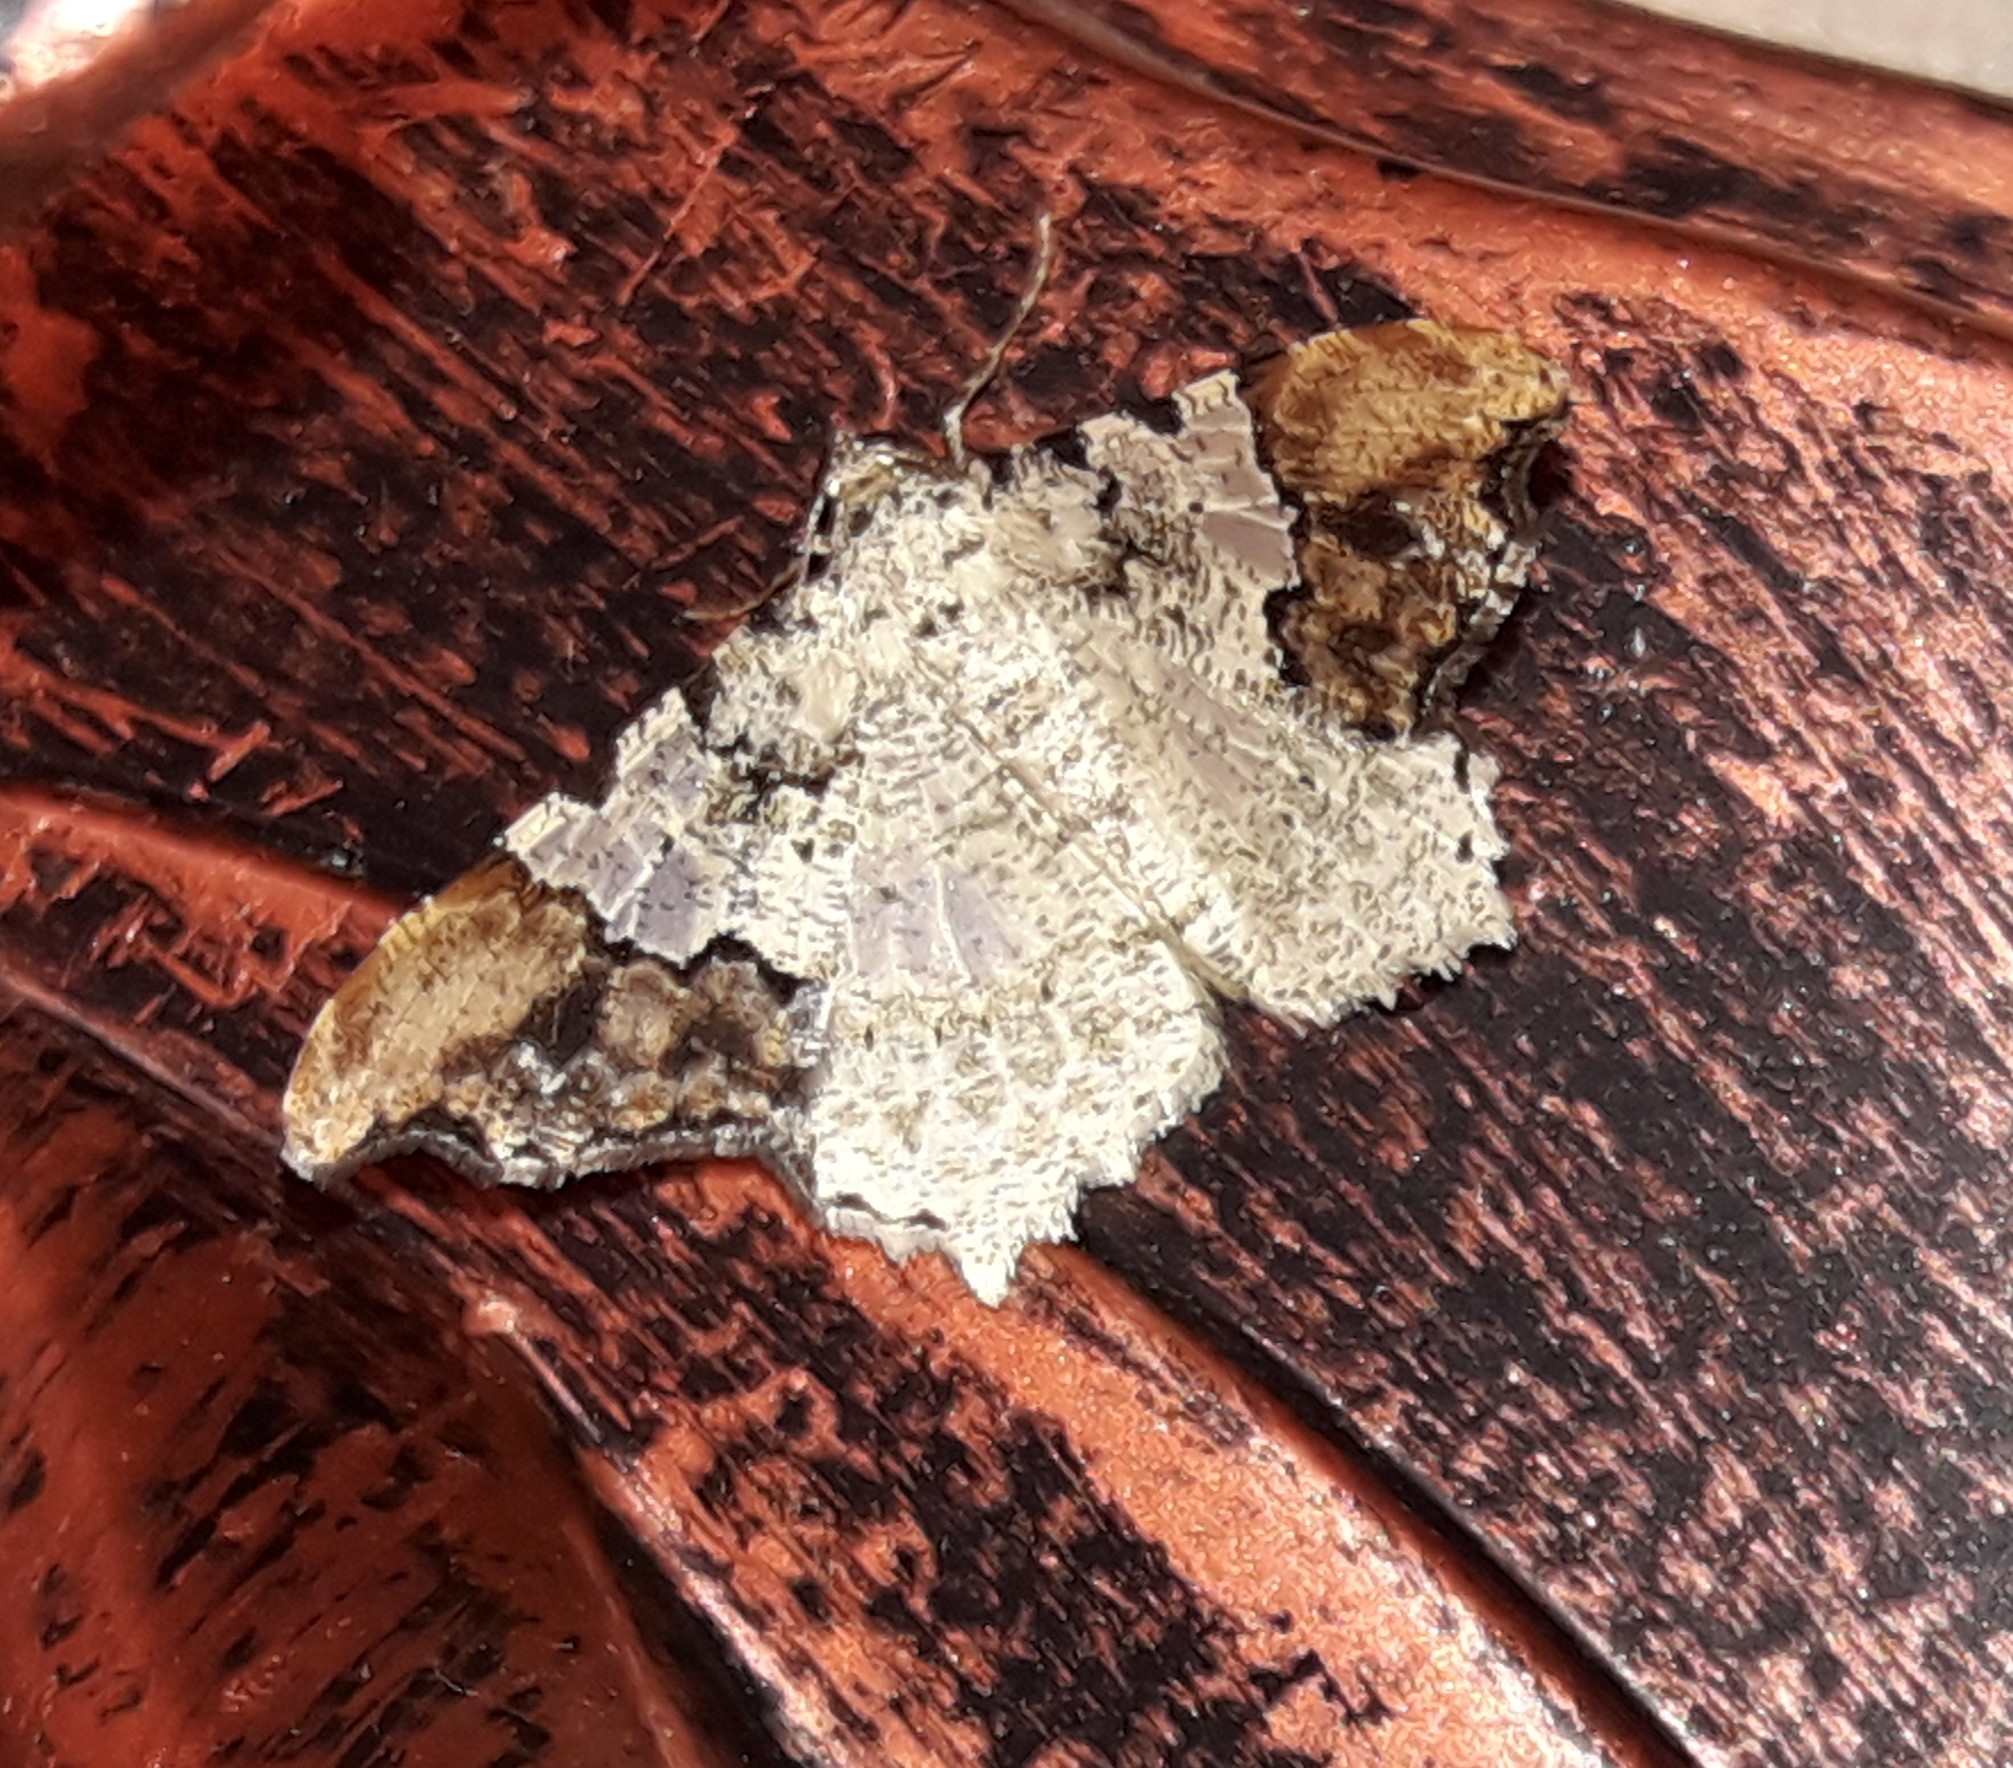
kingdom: Animalia
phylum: Arthropoda
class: Insecta
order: Lepidoptera
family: Geometridae
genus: Semiothisa
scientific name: Semiothisa
